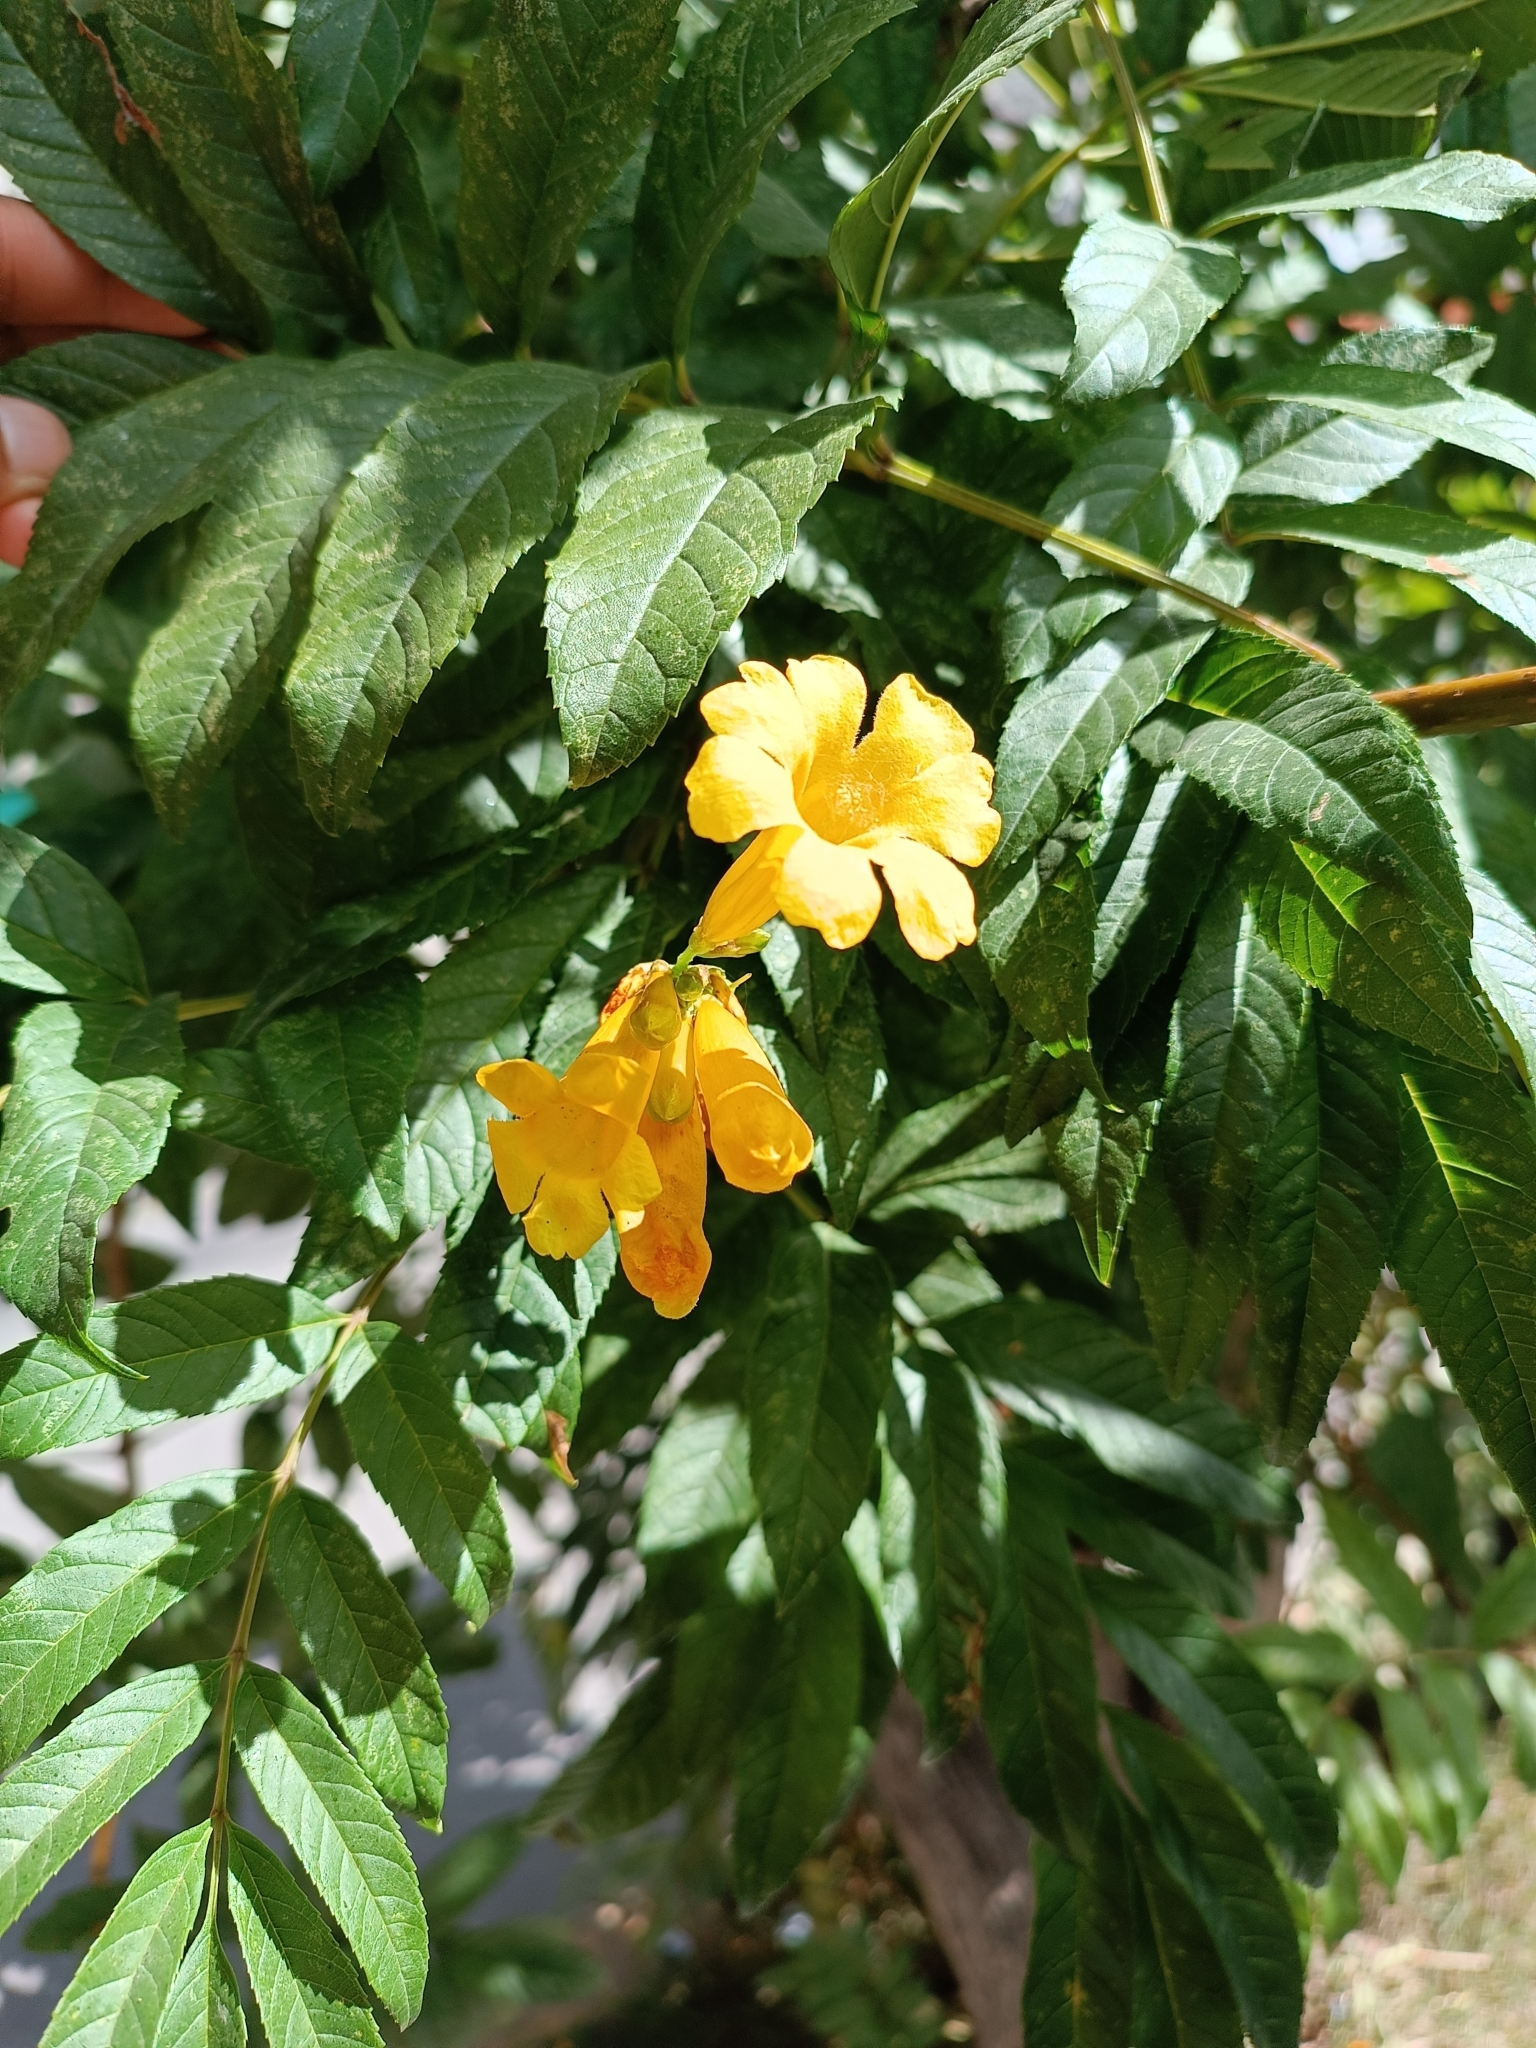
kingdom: Plantae
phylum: Tracheophyta
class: Magnoliopsida
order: Lamiales
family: Bignoniaceae
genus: Tecoma
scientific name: Tecoma stans
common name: Yellow trumpetbush
